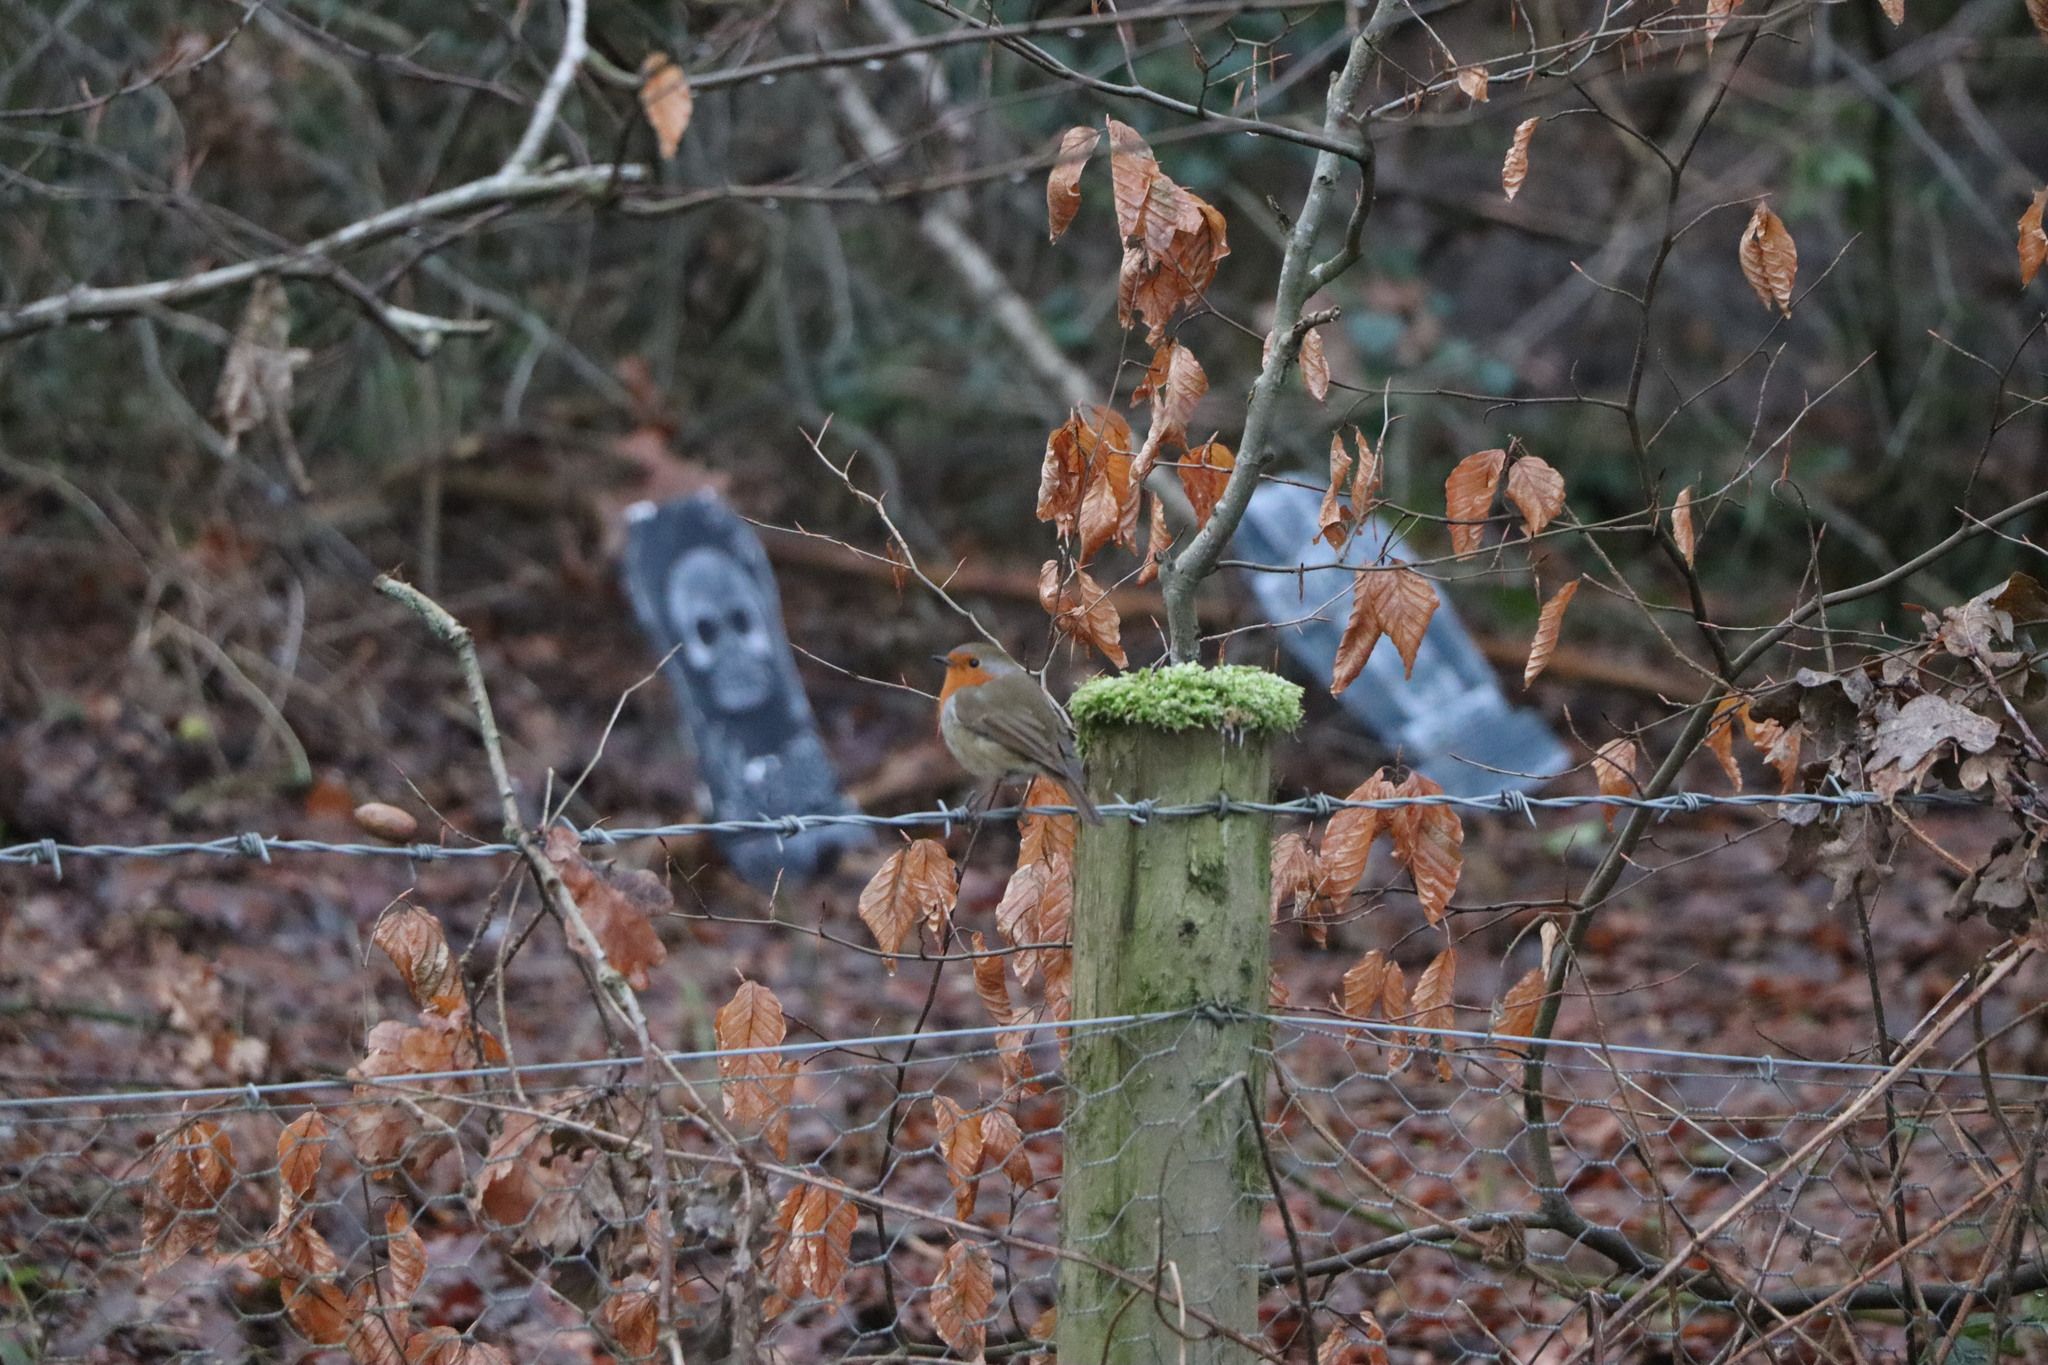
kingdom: Animalia
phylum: Chordata
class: Aves
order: Passeriformes
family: Muscicapidae
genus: Erithacus
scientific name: Erithacus rubecula
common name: European robin
